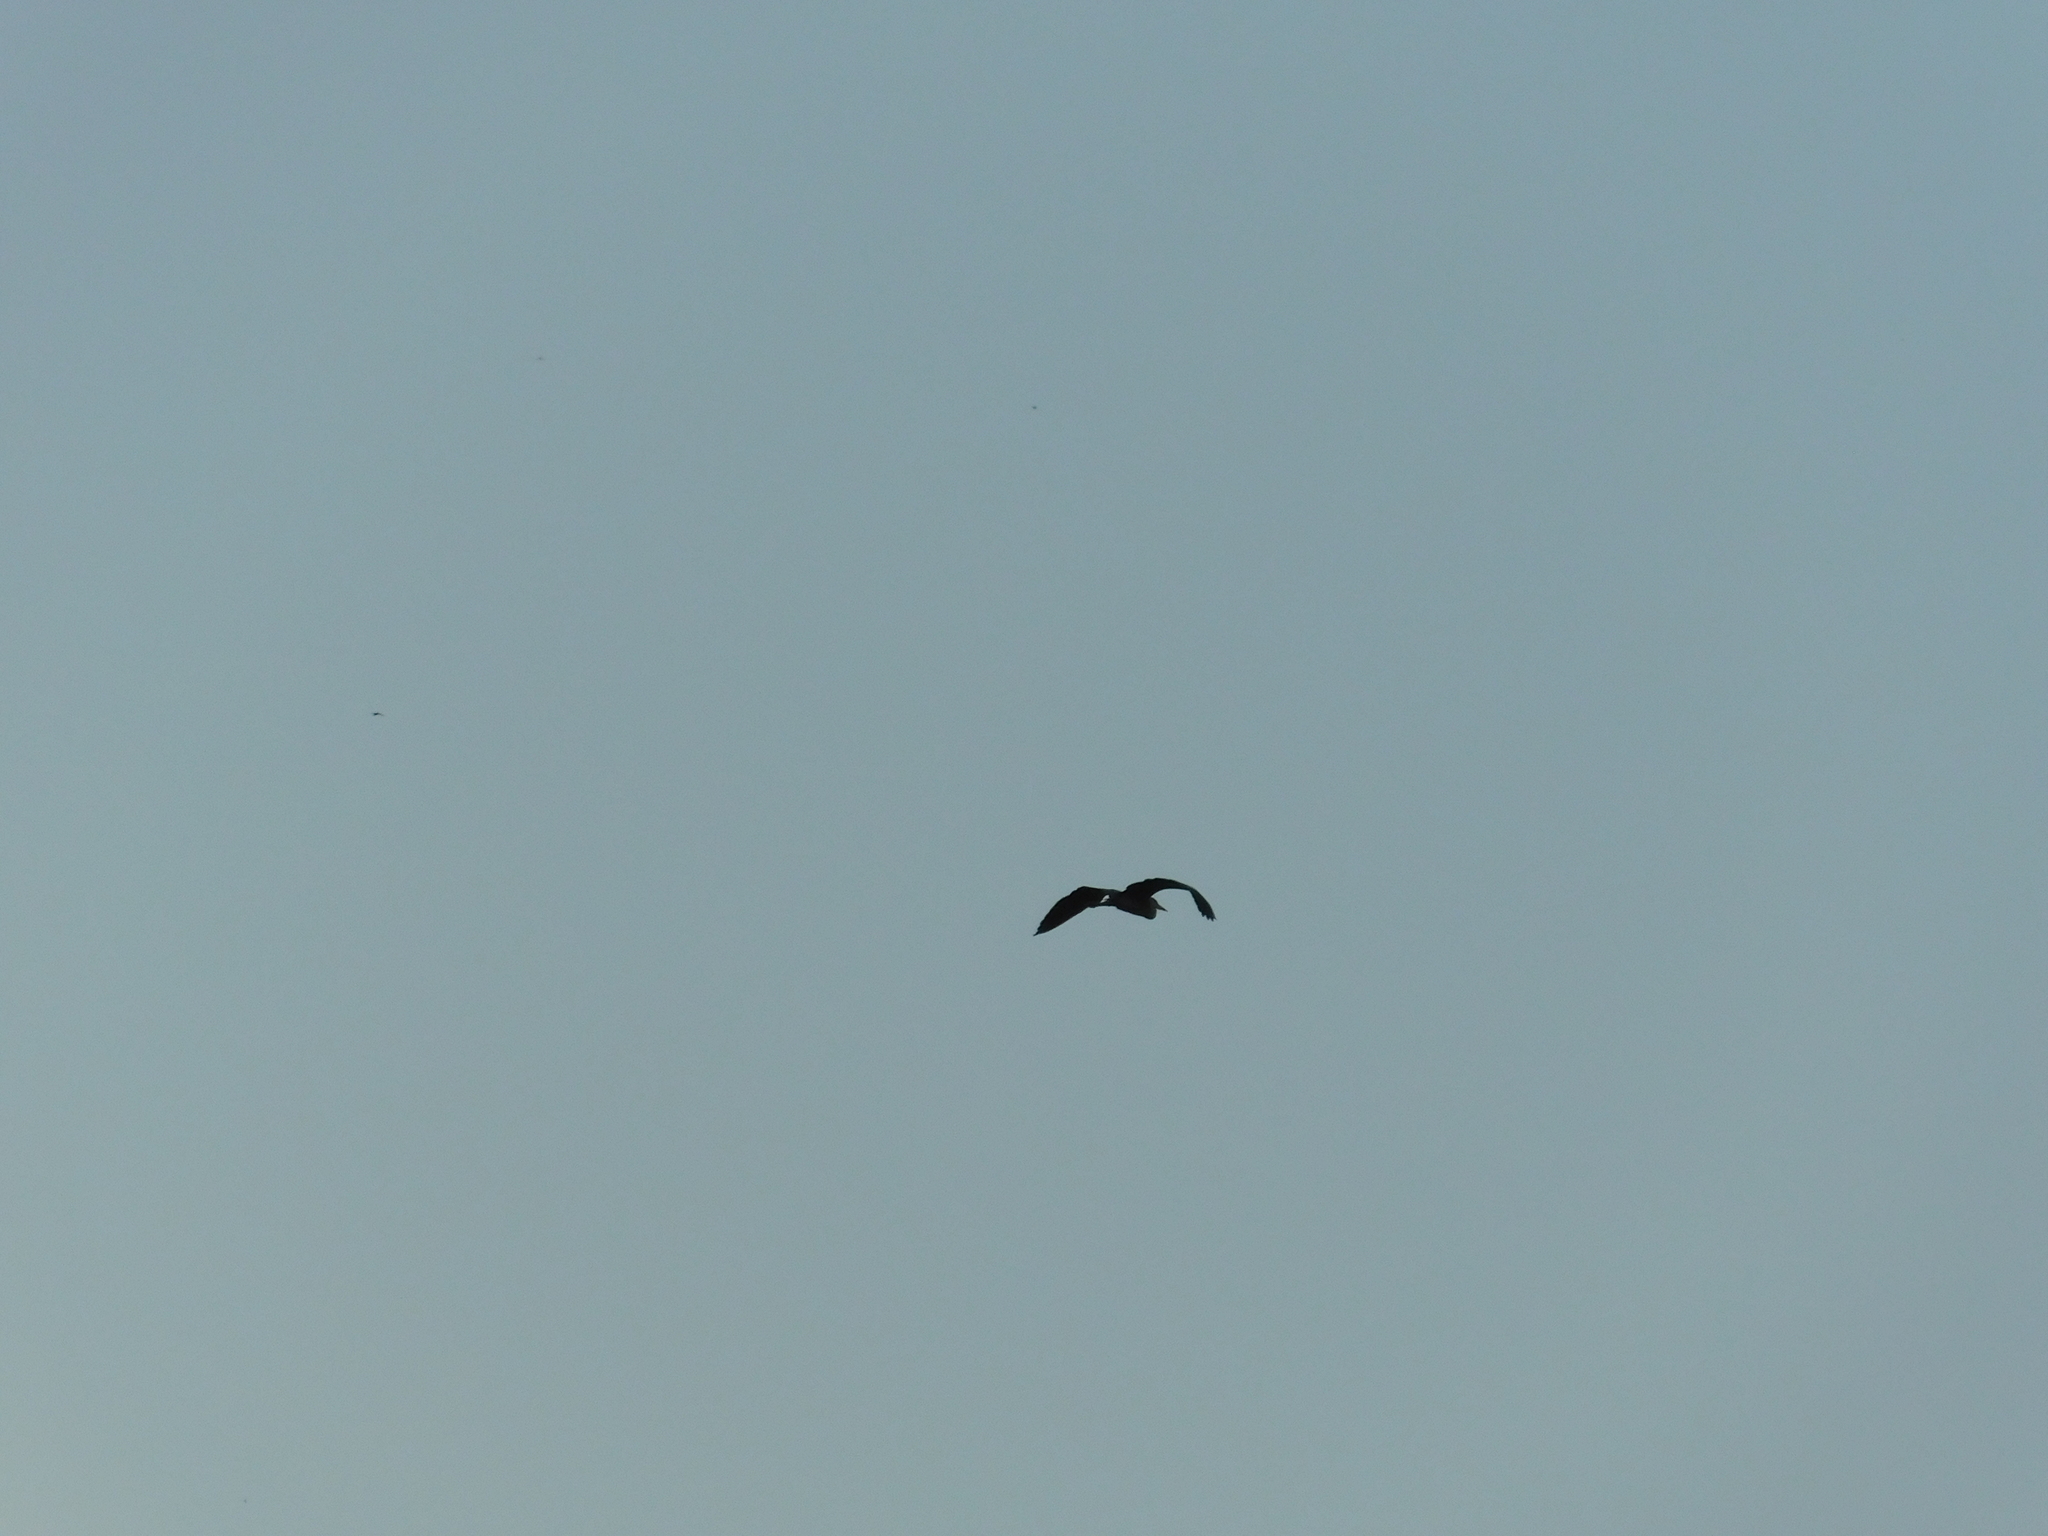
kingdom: Animalia
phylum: Chordata
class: Aves
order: Pelecaniformes
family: Ardeidae
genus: Ardea
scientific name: Ardea cinerea
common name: Grey heron
